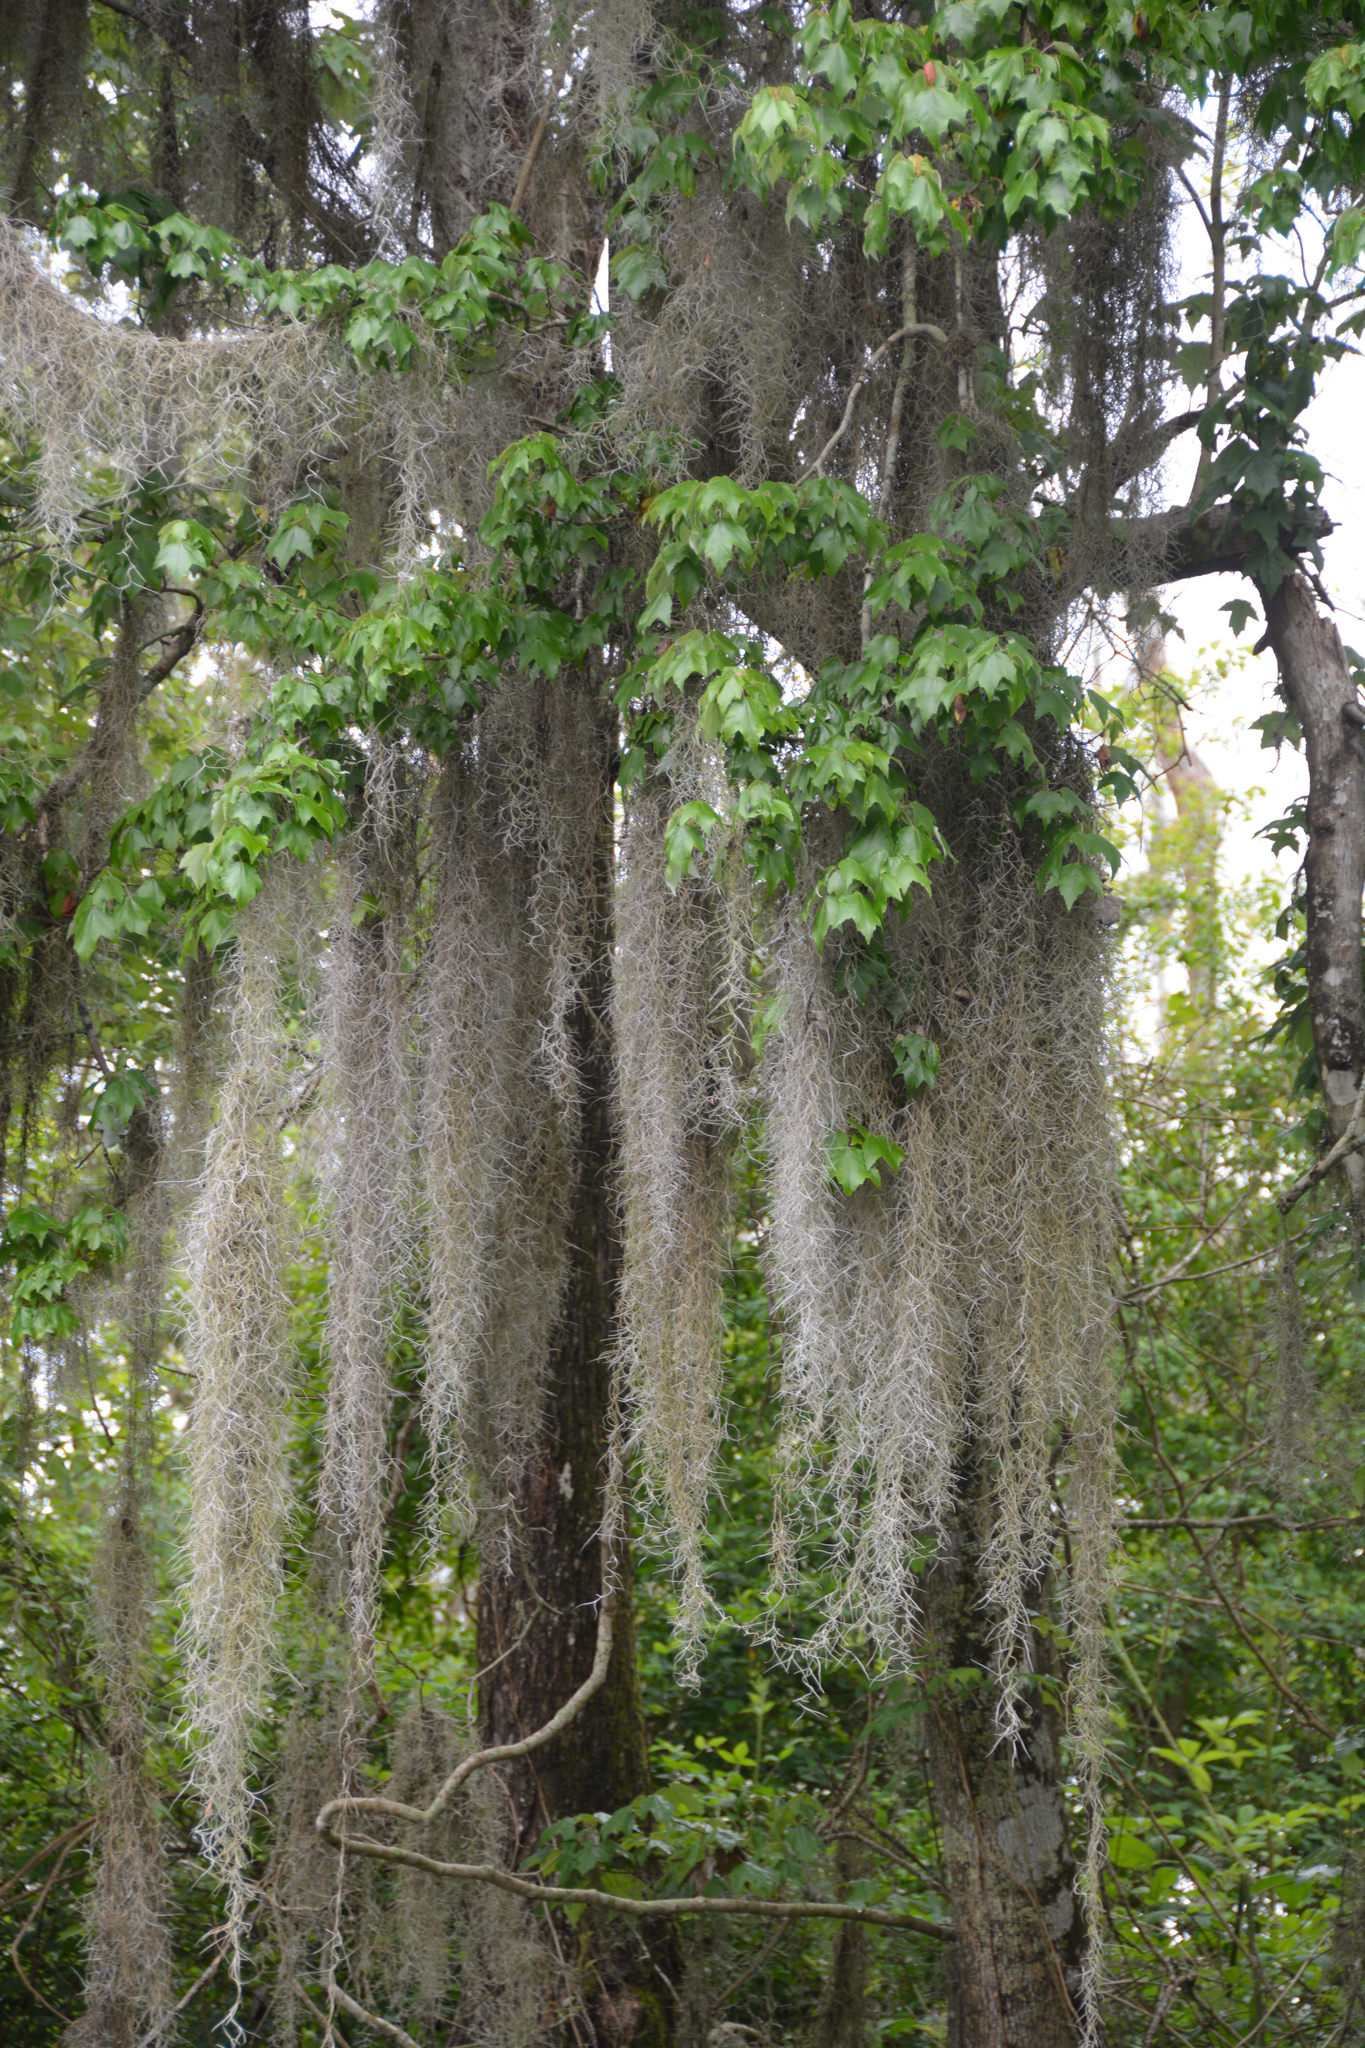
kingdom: Plantae
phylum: Tracheophyta
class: Liliopsida
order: Poales
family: Bromeliaceae
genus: Tillandsia
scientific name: Tillandsia usneoides
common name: Spanish moss
